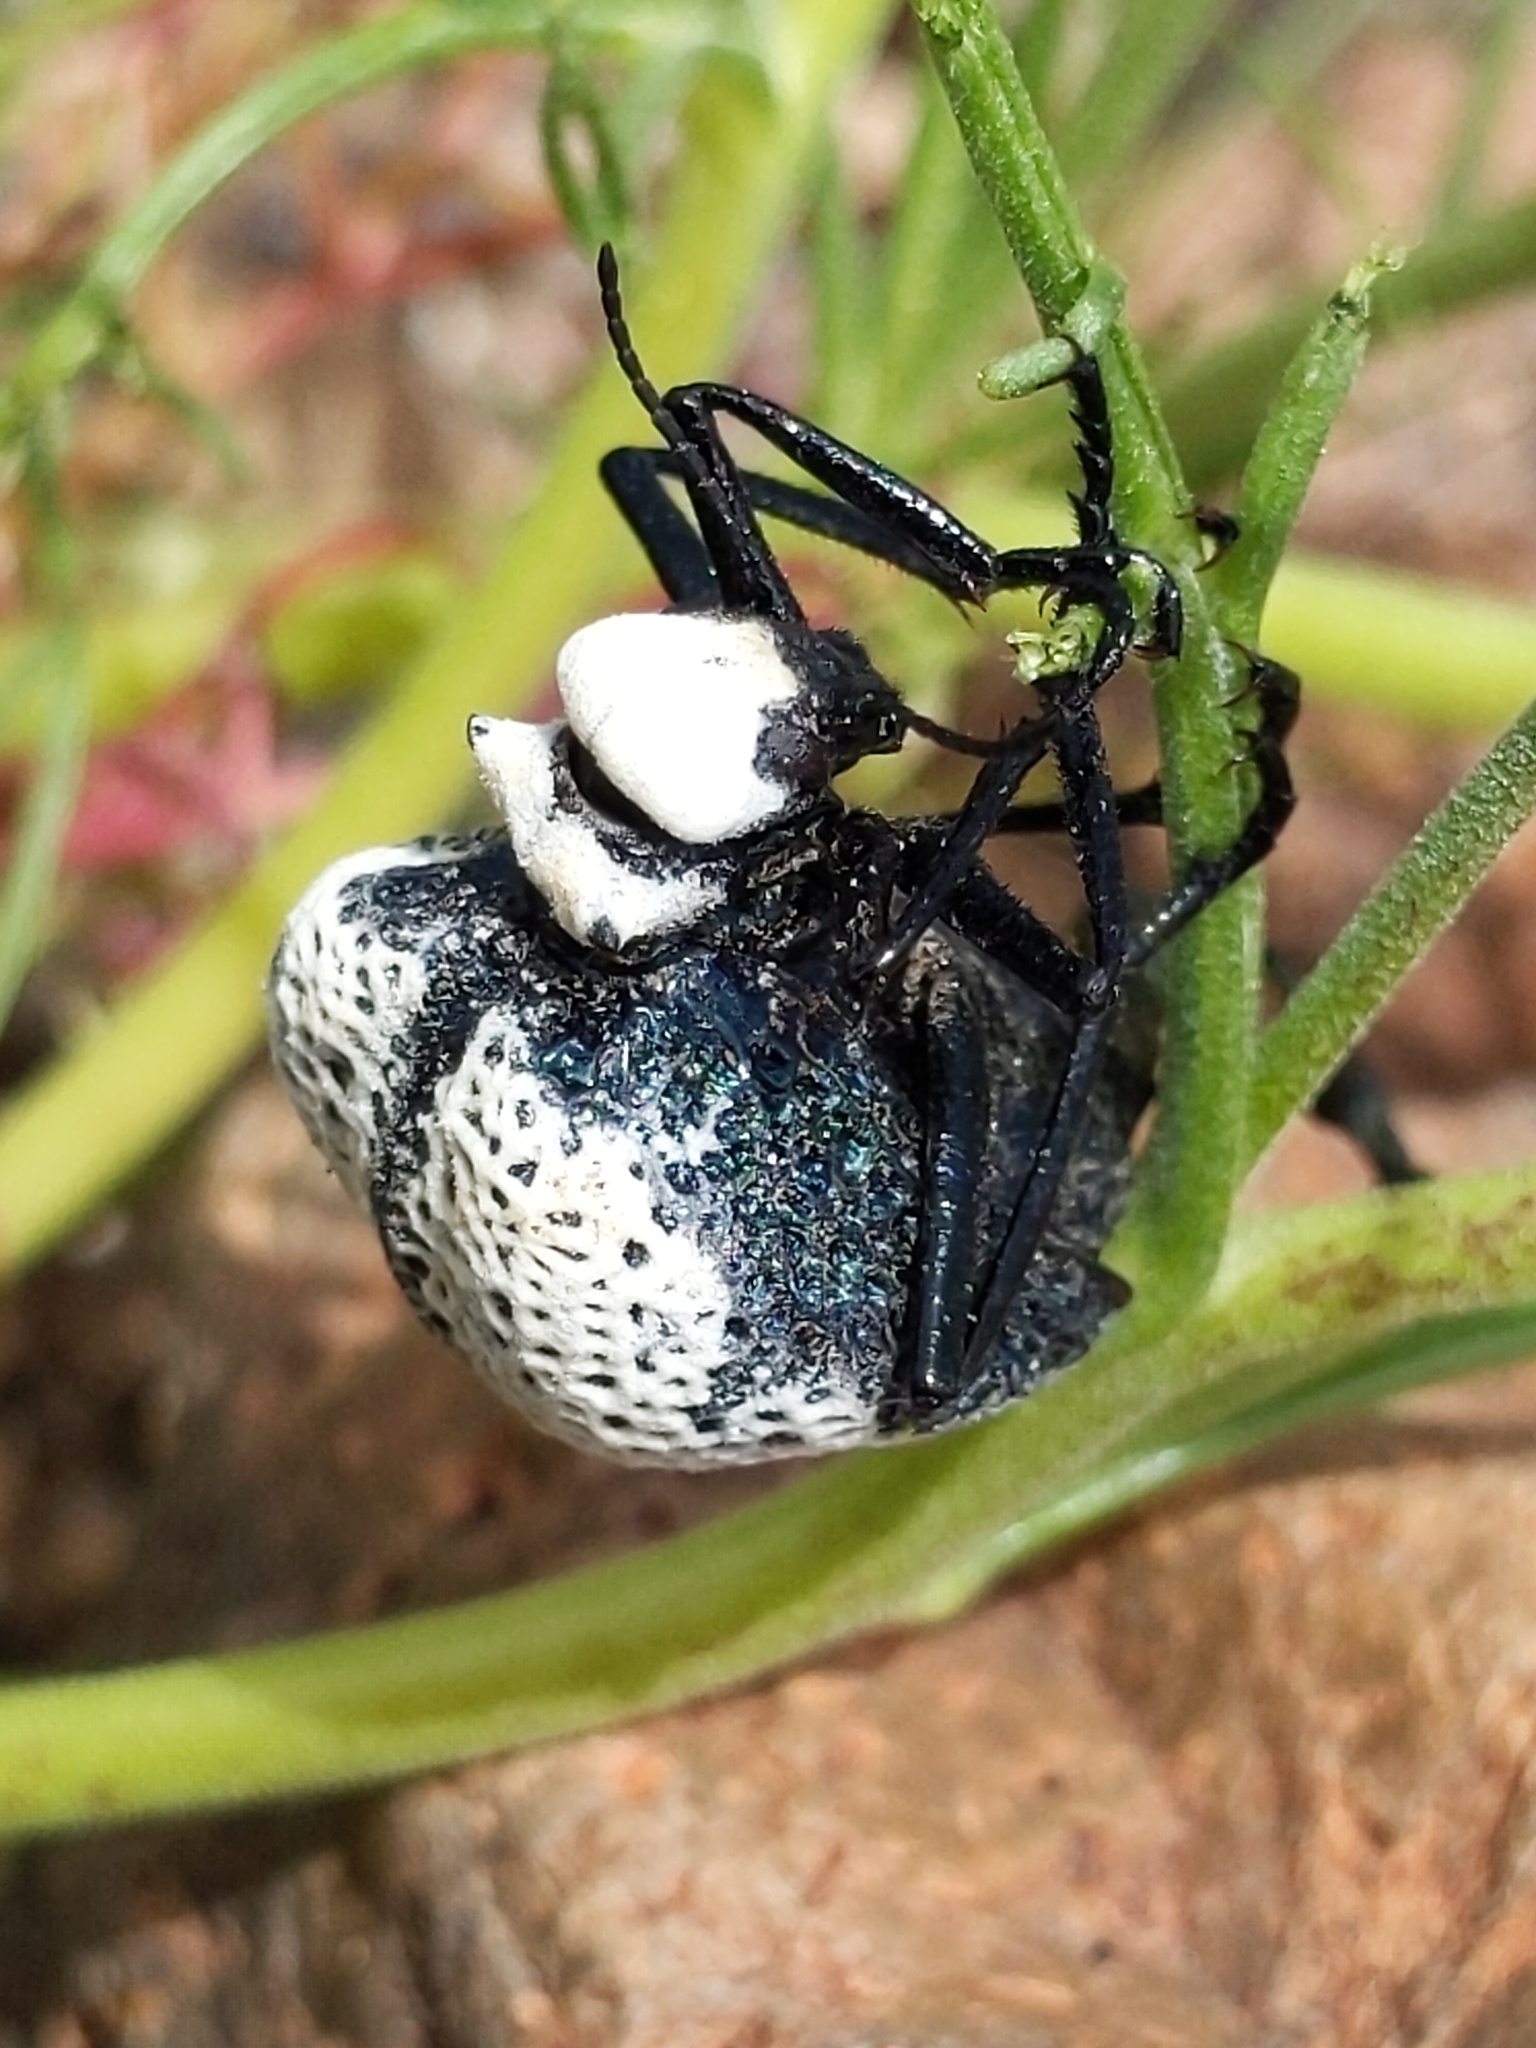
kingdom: Animalia
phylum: Arthropoda
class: Insecta
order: Coleoptera
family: Meloidae
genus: Cysteodemus
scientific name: Cysteodemus armatus
